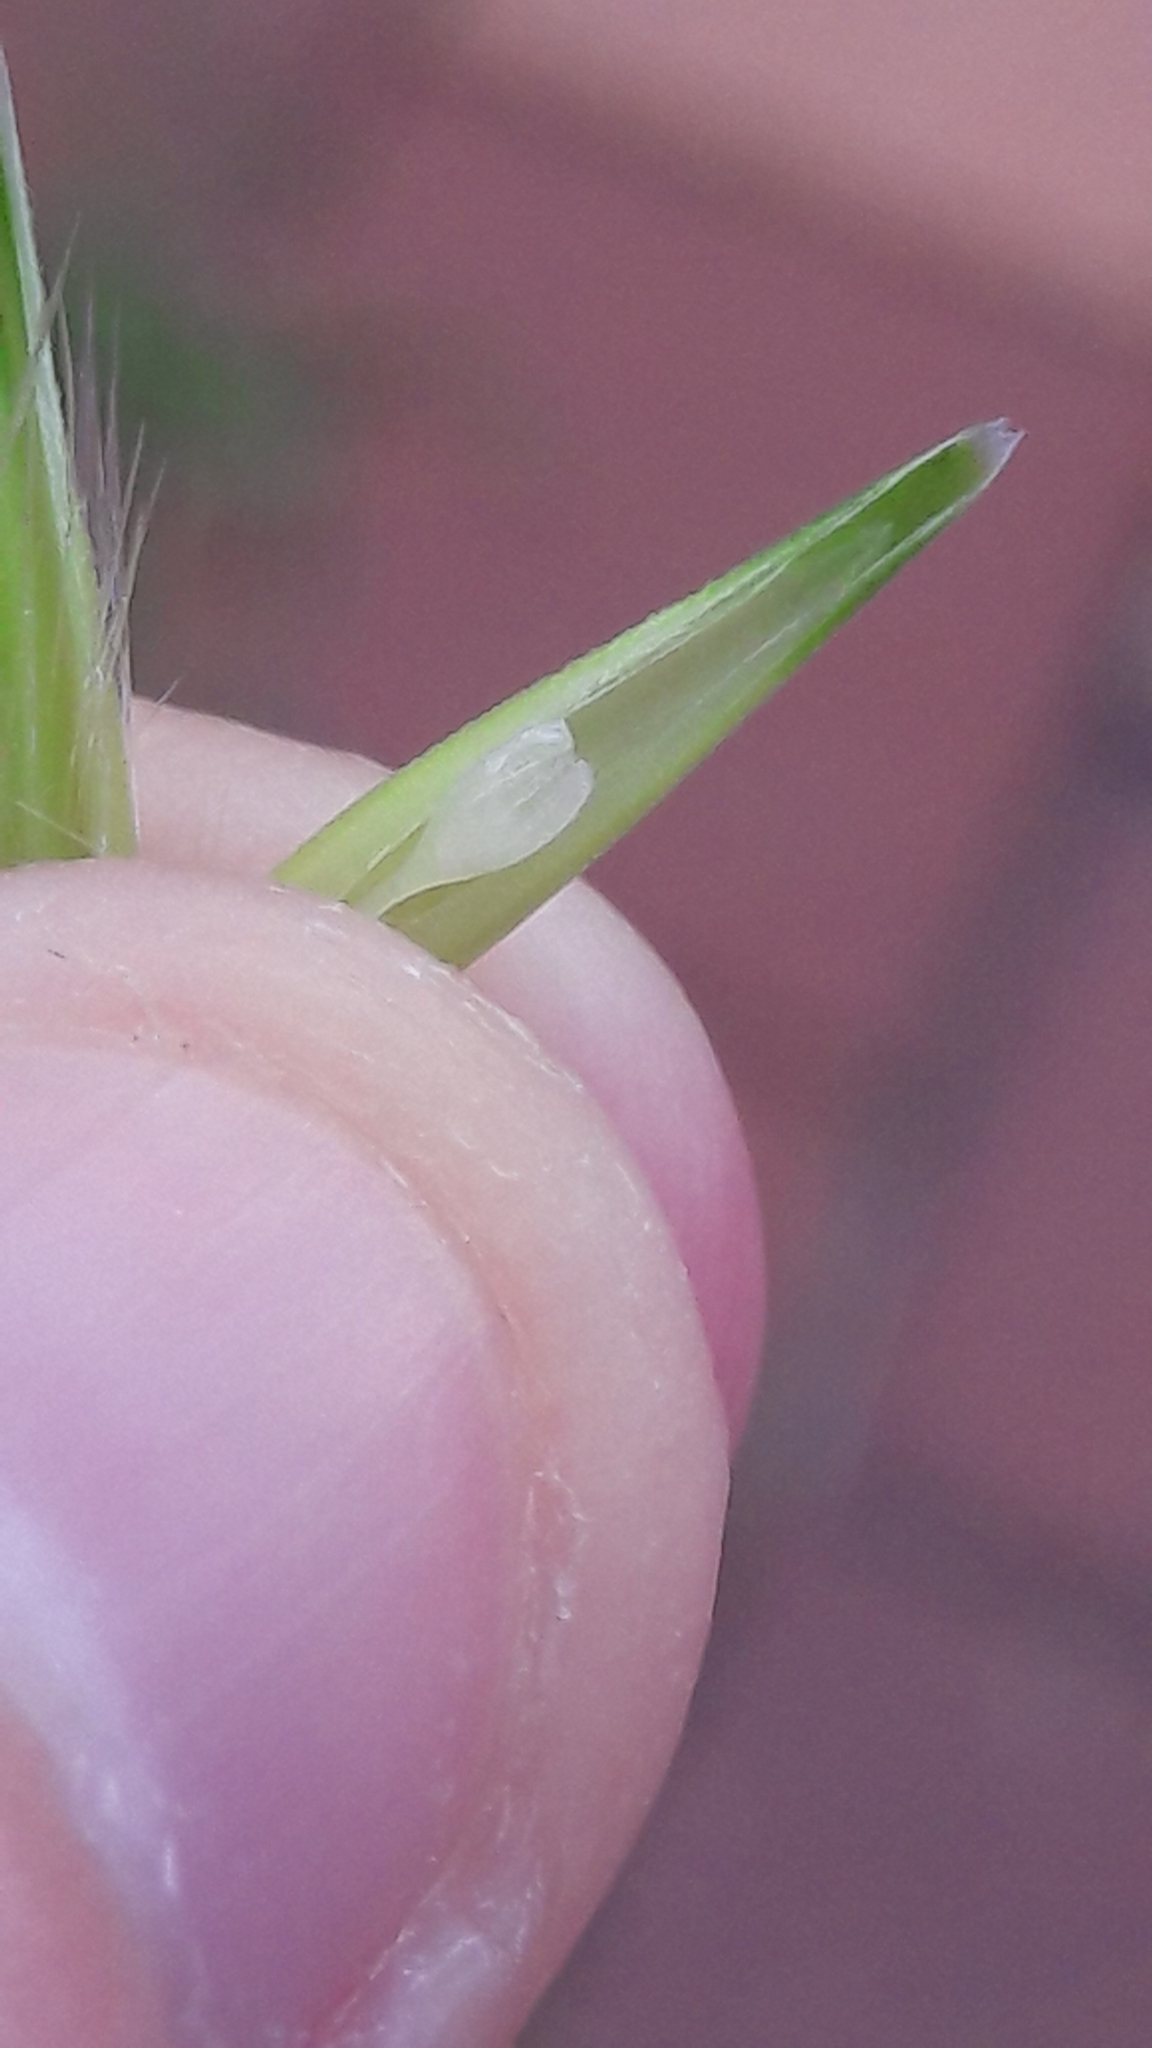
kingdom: Plantae
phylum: Tracheophyta
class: Liliopsida
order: Poales
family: Poaceae
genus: Avena
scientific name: Avena
